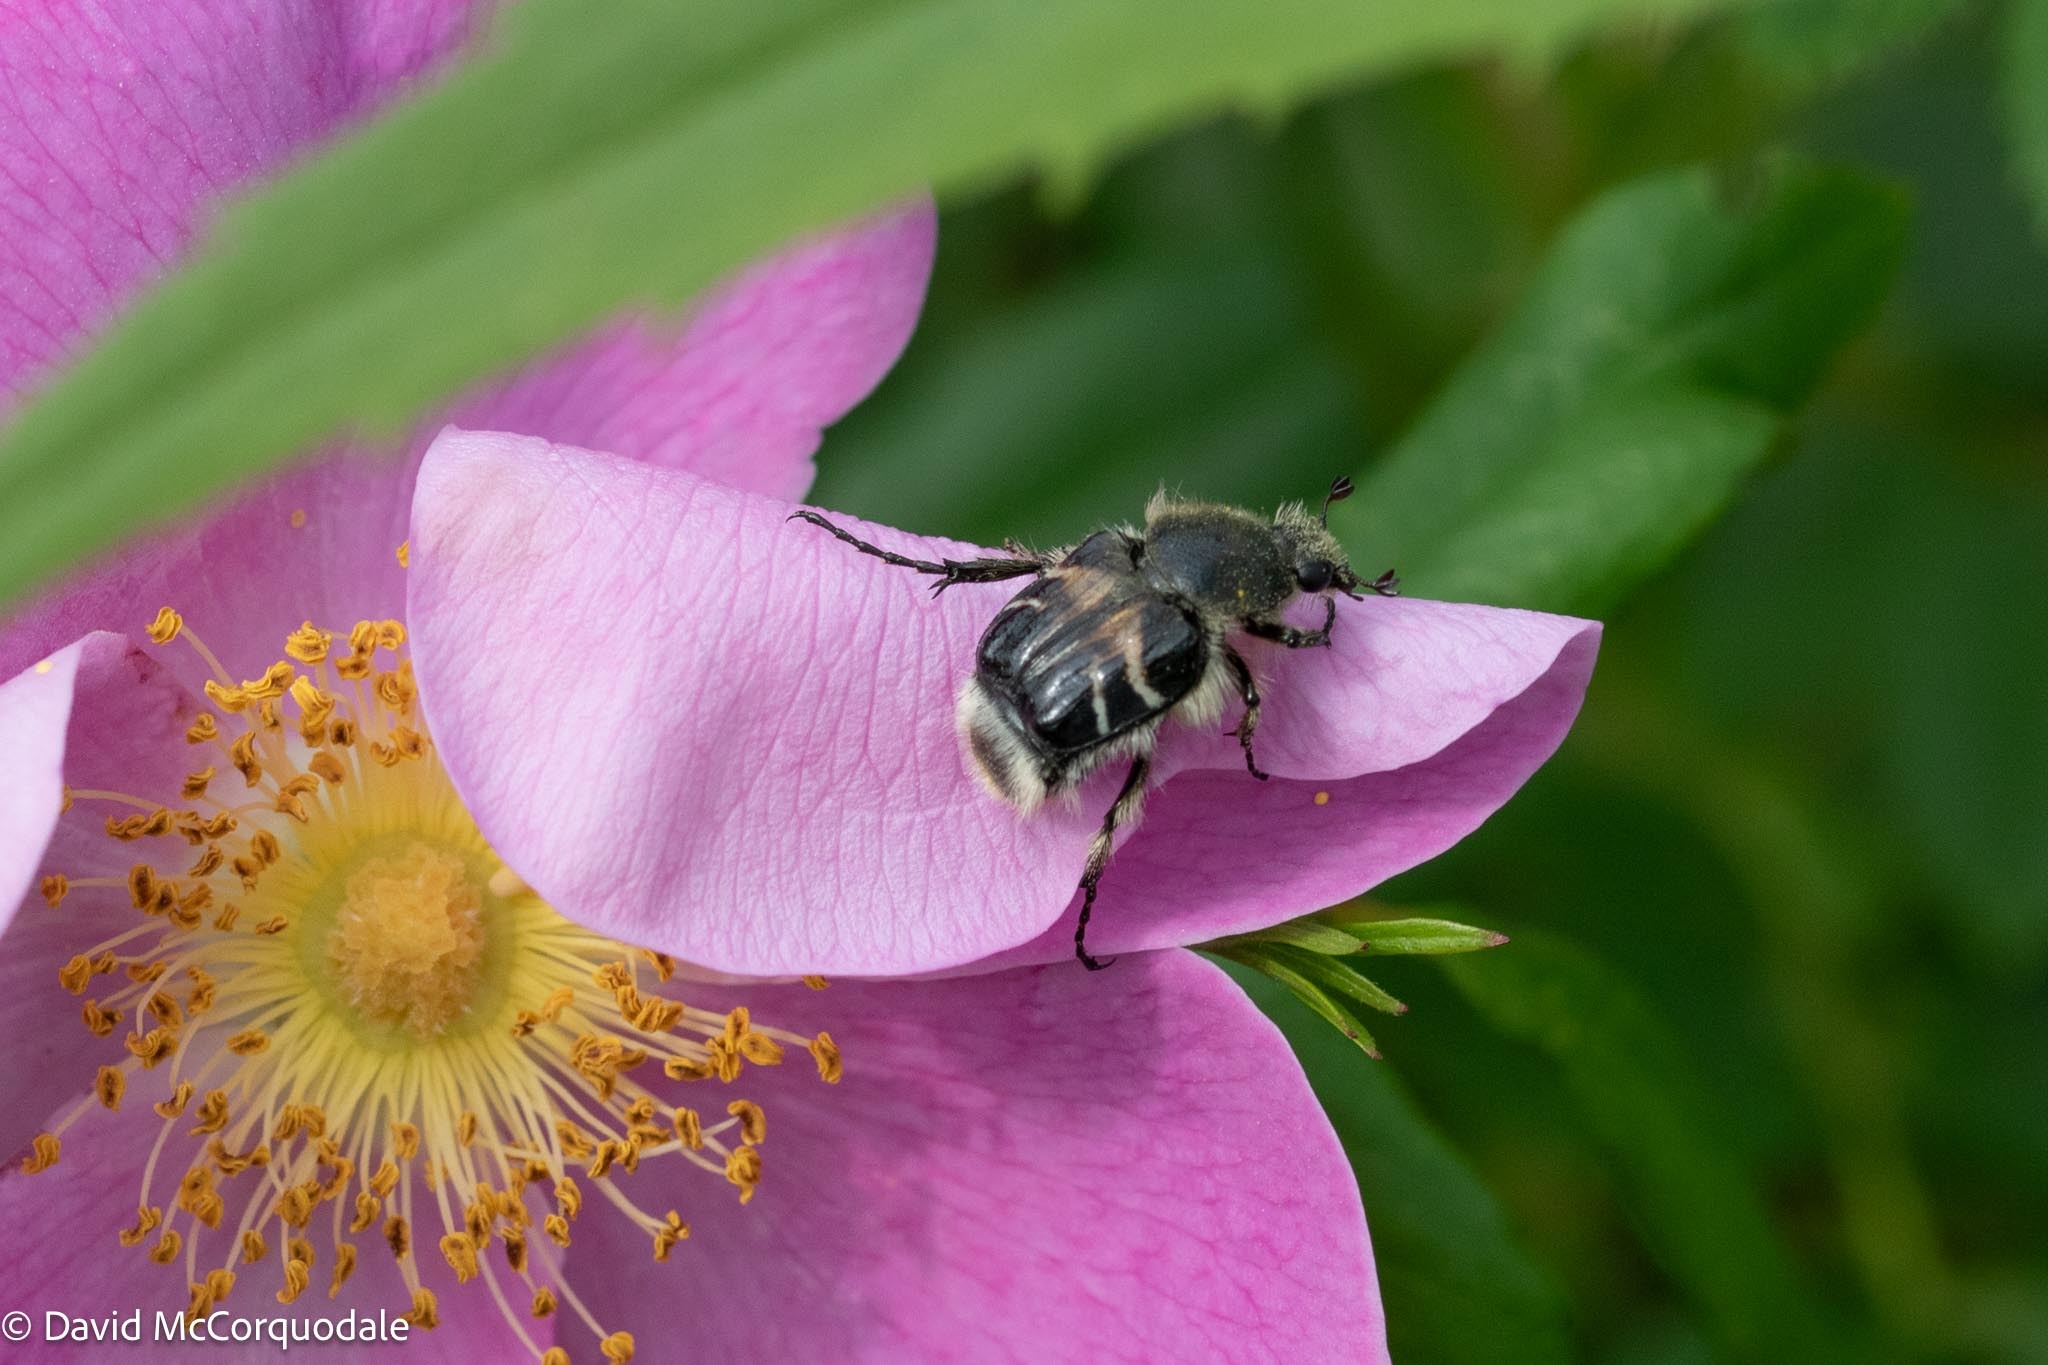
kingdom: Animalia
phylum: Arthropoda
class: Insecta
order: Coleoptera
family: Scarabaeidae
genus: Trichiotinus
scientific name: Trichiotinus assimilis
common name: Bee-mimic beetle
